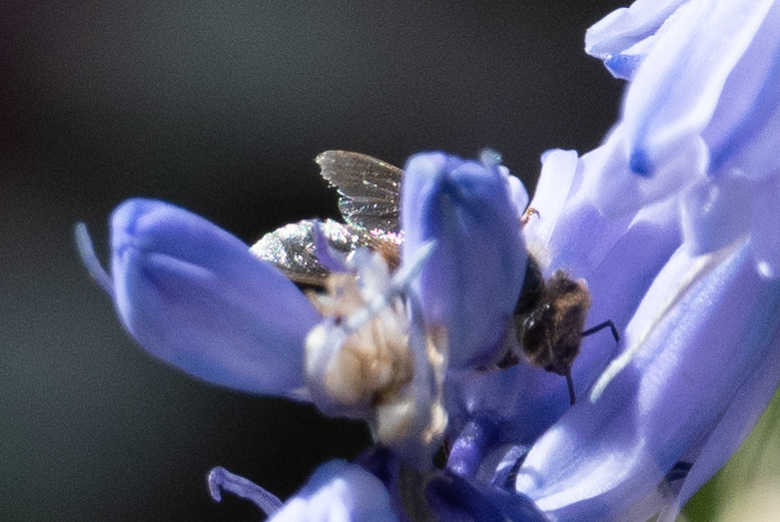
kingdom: Animalia
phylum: Arthropoda
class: Insecta
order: Hymenoptera
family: Apidae
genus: Apis
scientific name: Apis mellifera
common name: Honey bee
